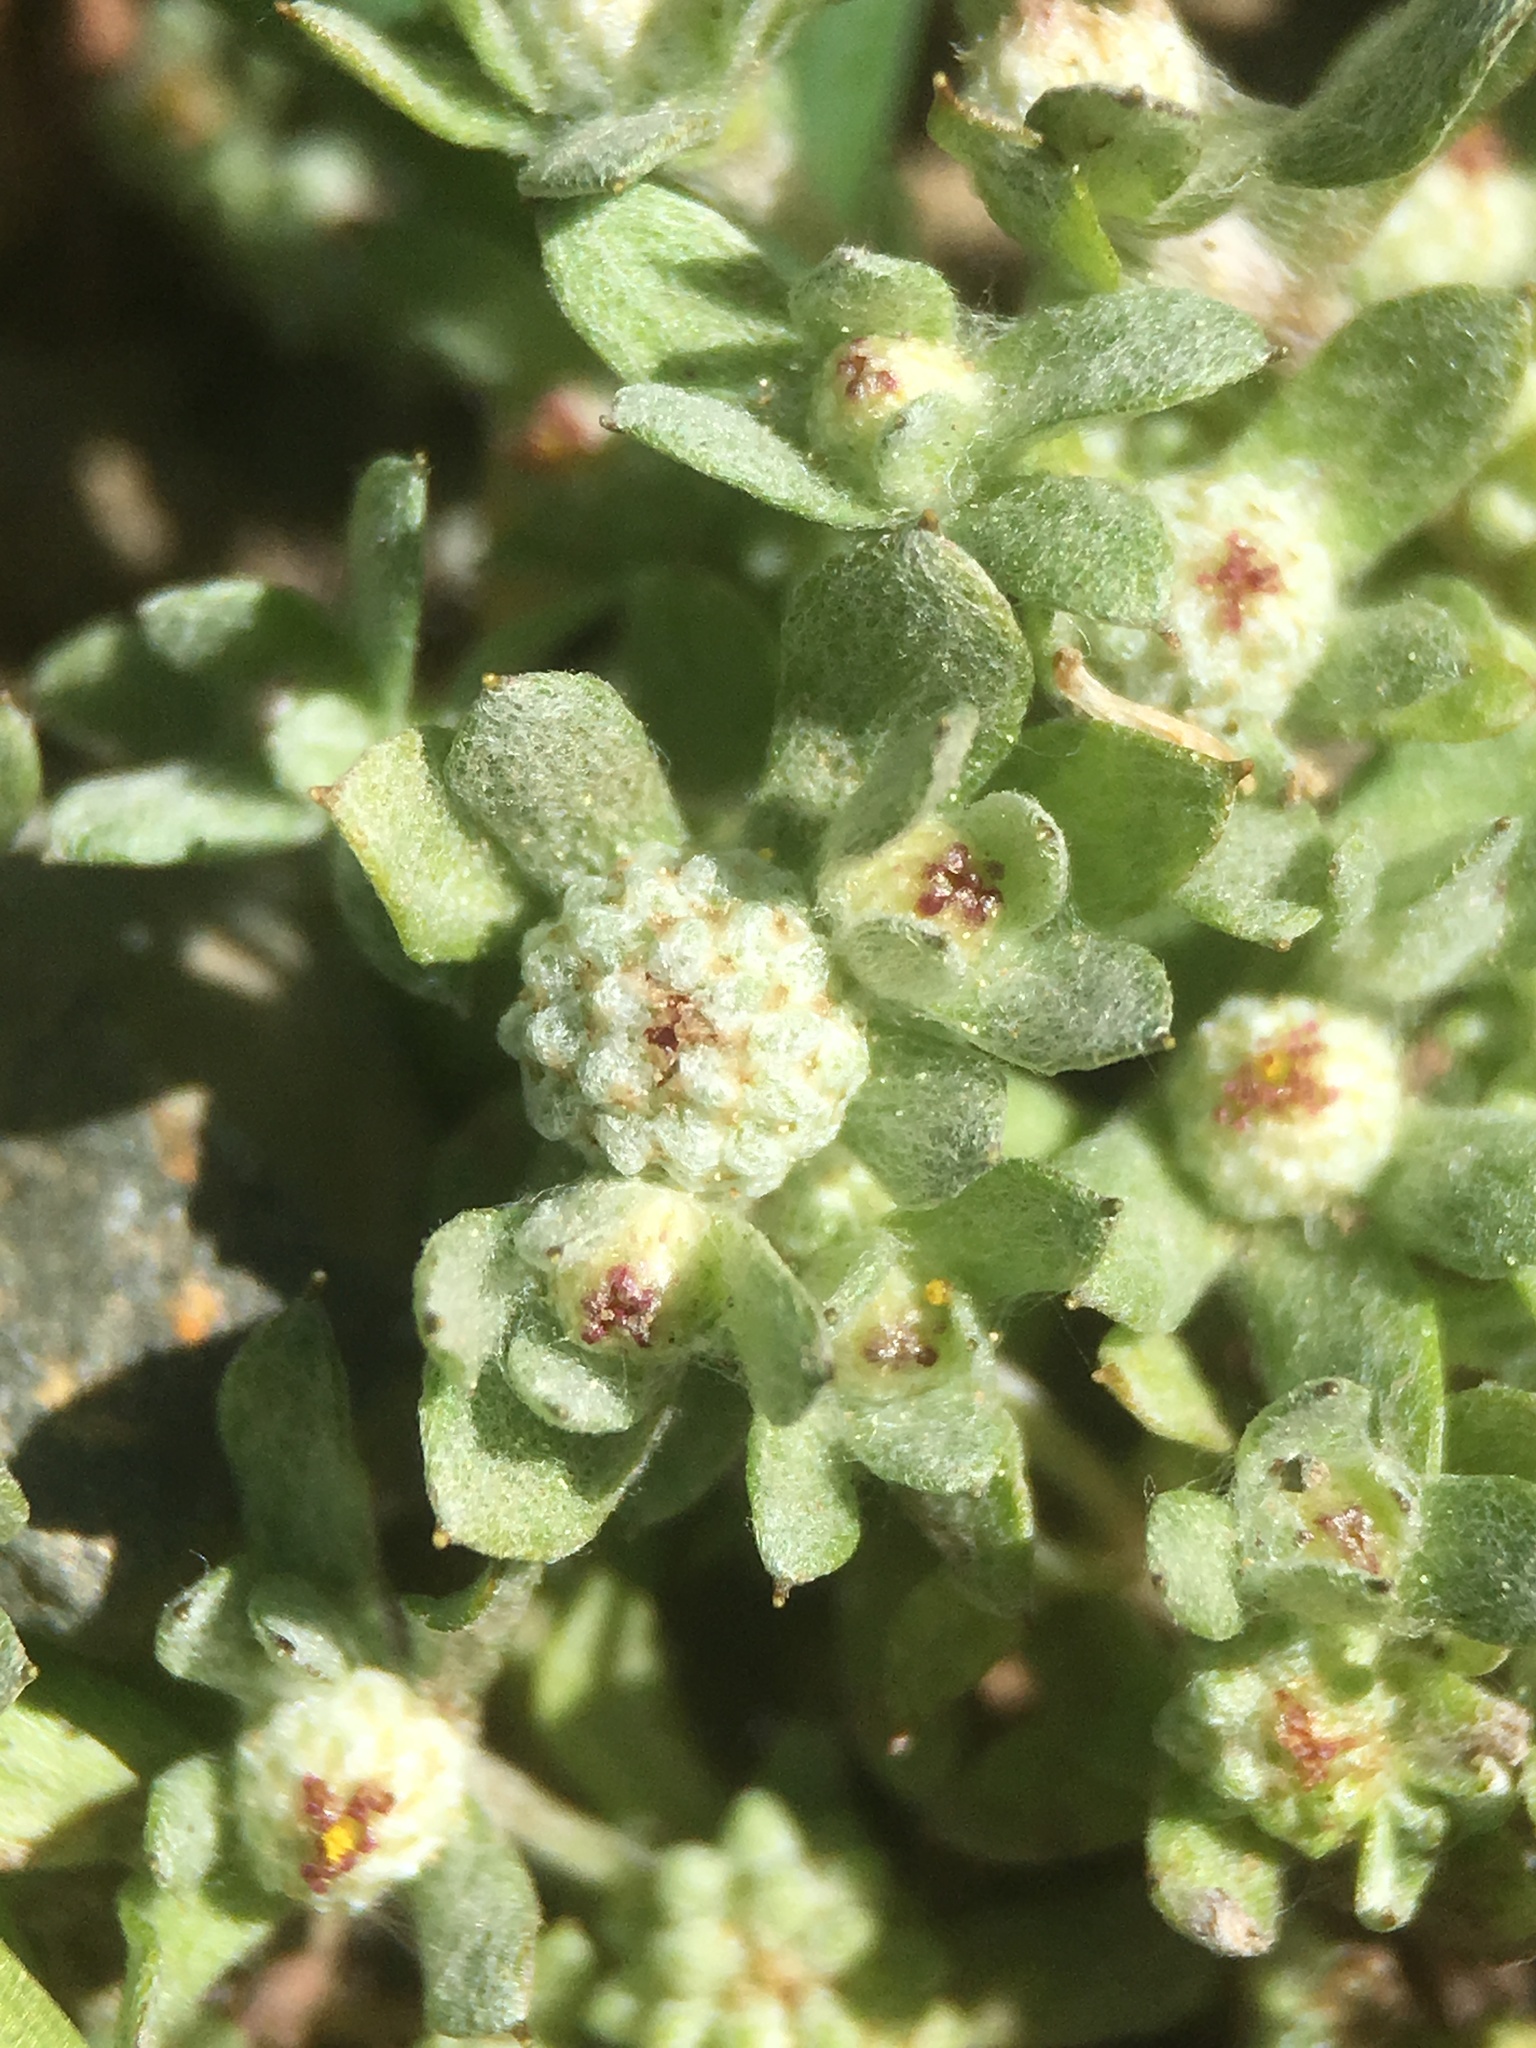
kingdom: Plantae
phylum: Tracheophyta
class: Magnoliopsida
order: Asterales
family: Asteraceae
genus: Psilocarphus
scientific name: Psilocarphus tenellus
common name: Slender woolly-marbles
